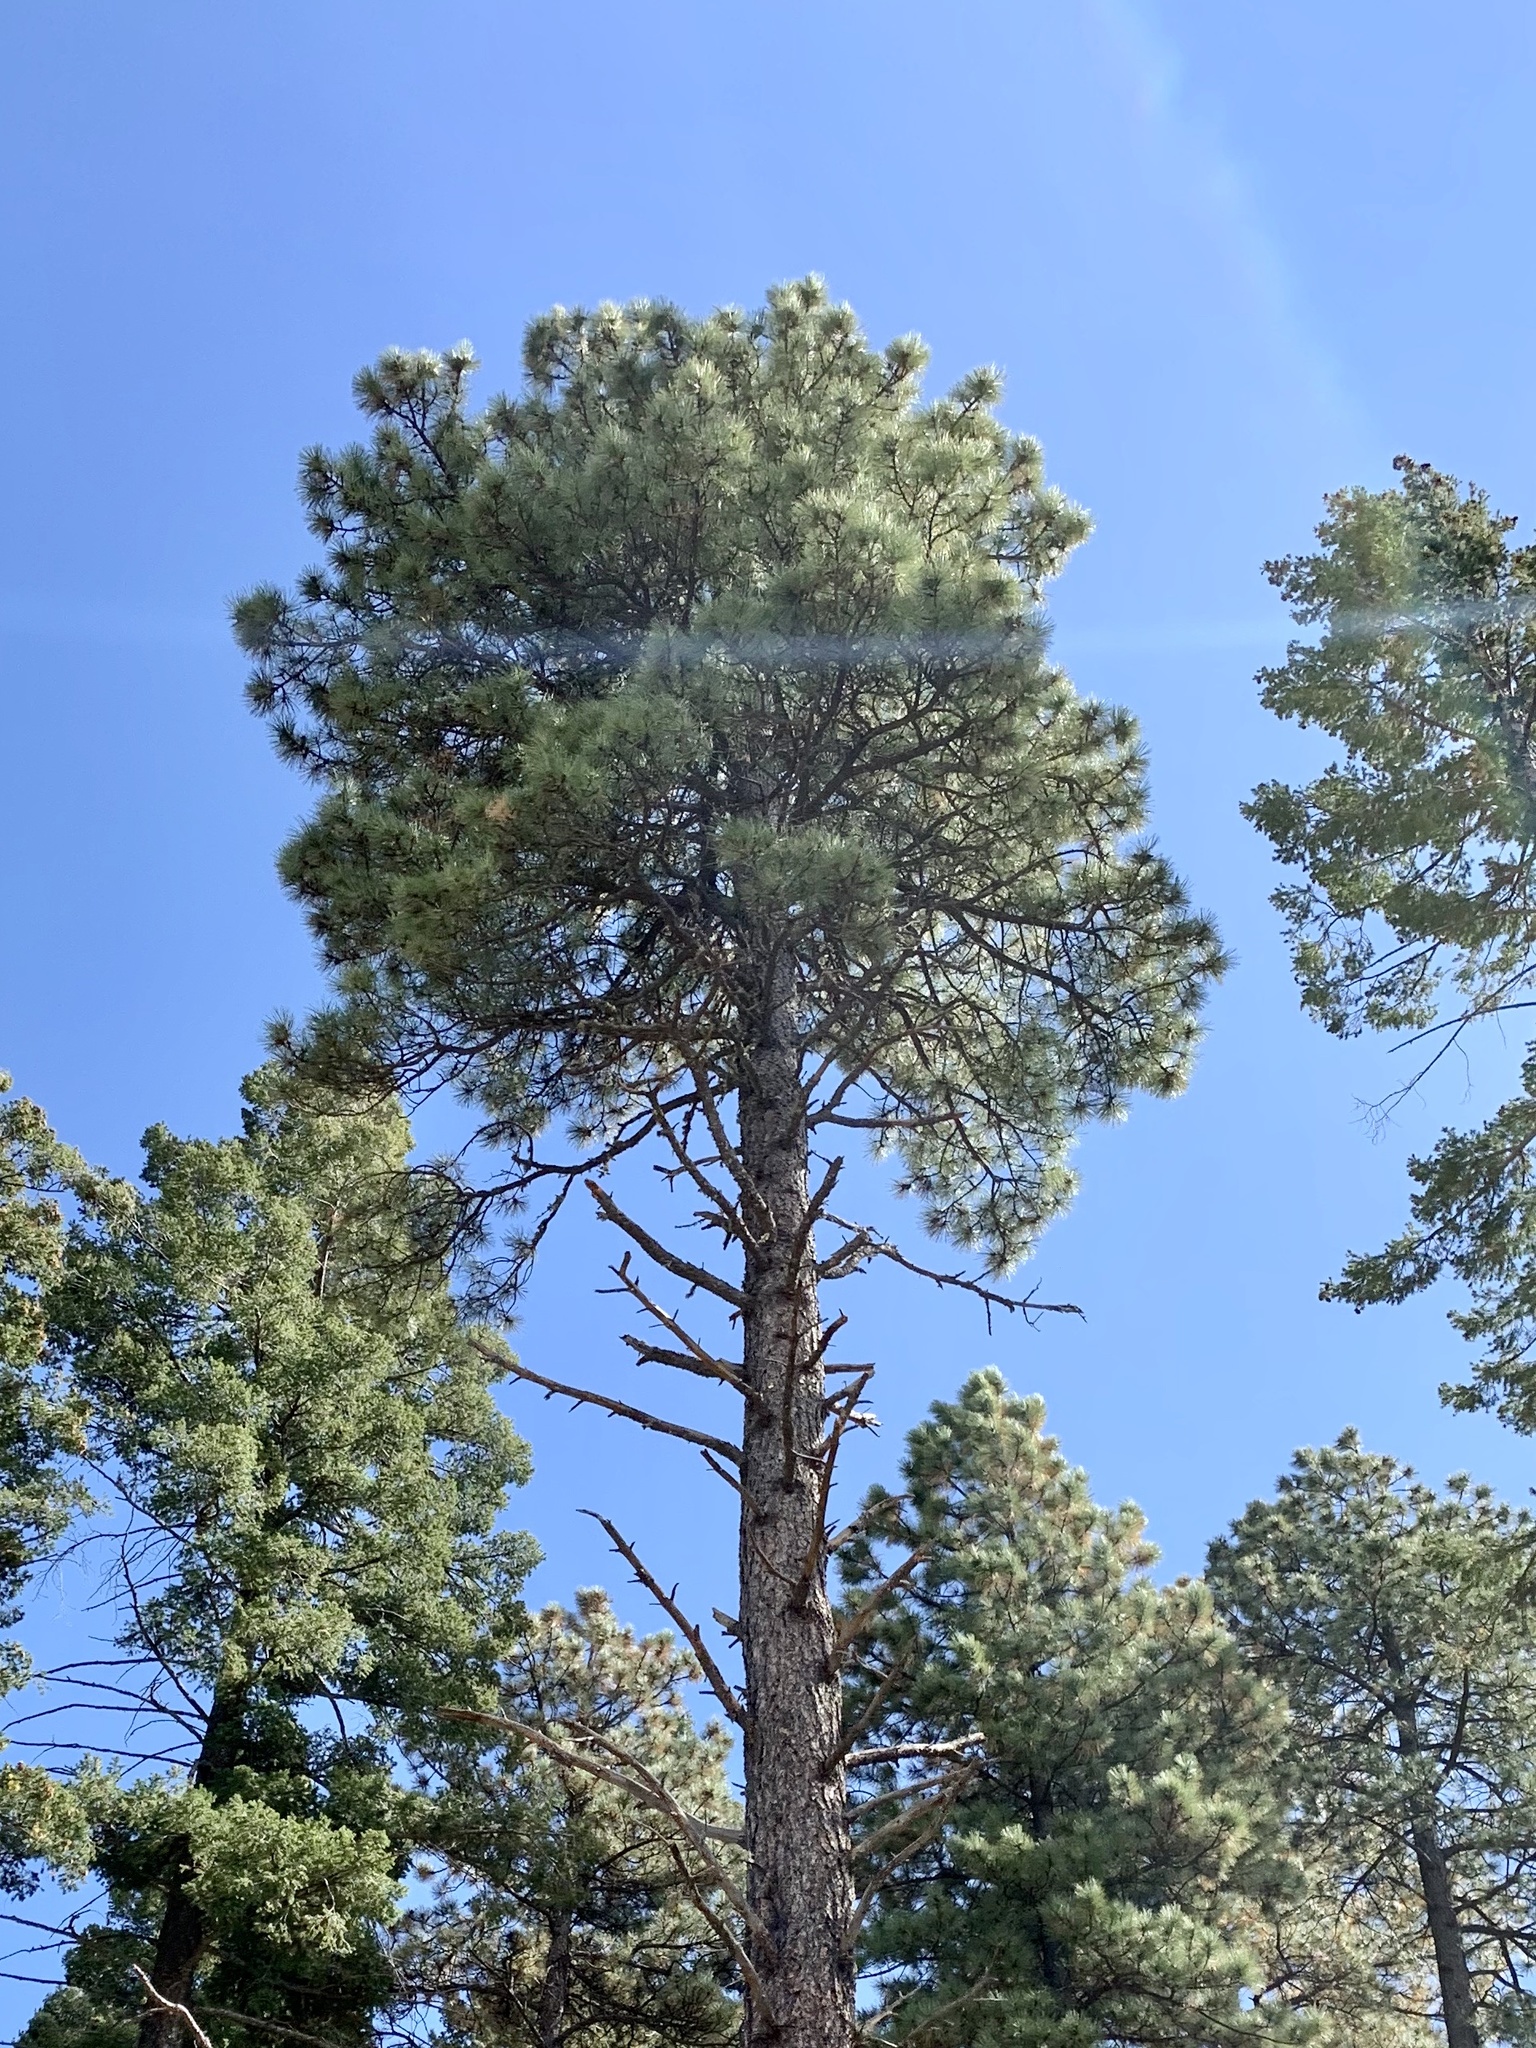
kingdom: Plantae
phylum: Tracheophyta
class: Pinopsida
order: Pinales
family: Pinaceae
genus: Pinus
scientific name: Pinus ponderosa
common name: Western yellow-pine
